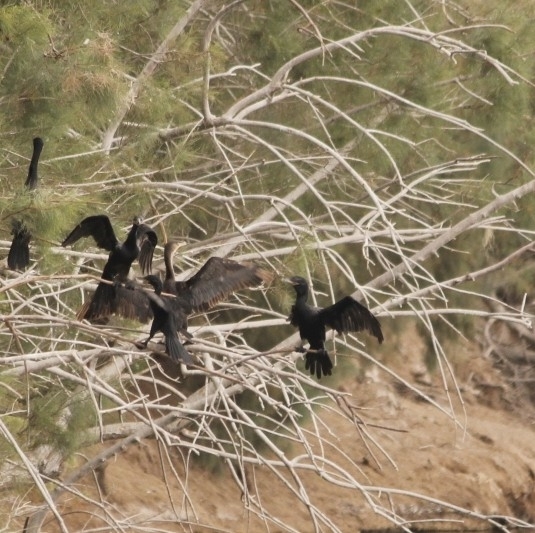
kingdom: Animalia
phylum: Chordata
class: Aves
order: Suliformes
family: Phalacrocoracidae
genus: Phalacrocorax
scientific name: Phalacrocorax brasilianus
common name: Neotropic cormorant
